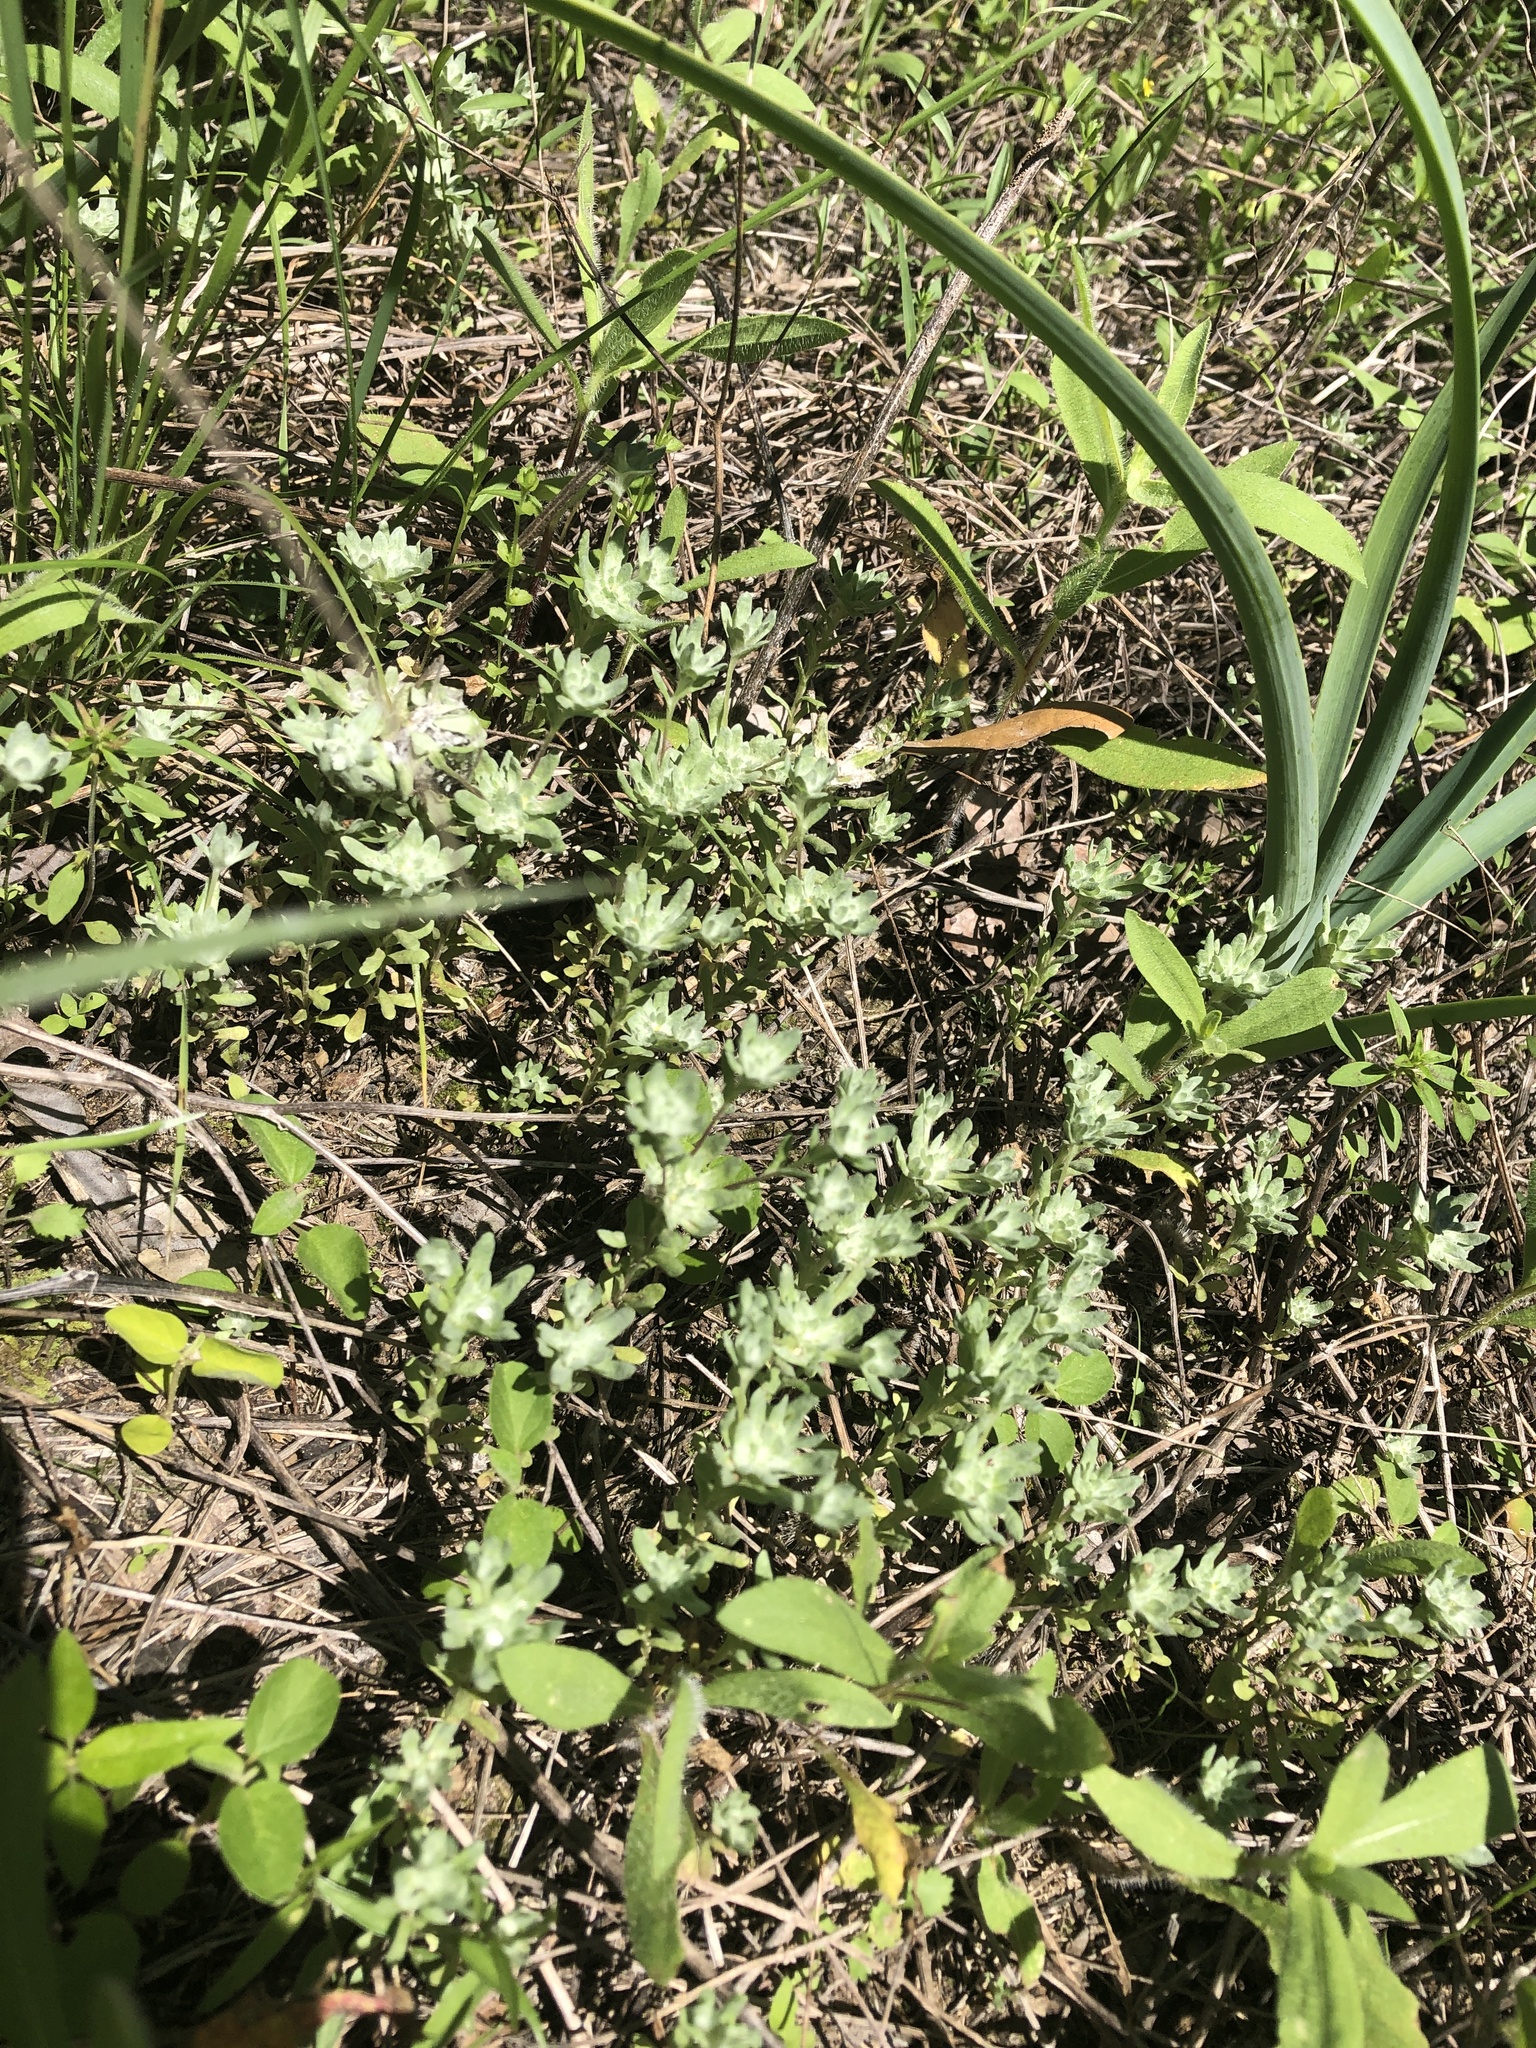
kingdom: Plantae
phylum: Tracheophyta
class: Magnoliopsida
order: Asterales
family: Asteraceae
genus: Diaperia
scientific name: Diaperia prolifera
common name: Big-head rabbit-tobacco
